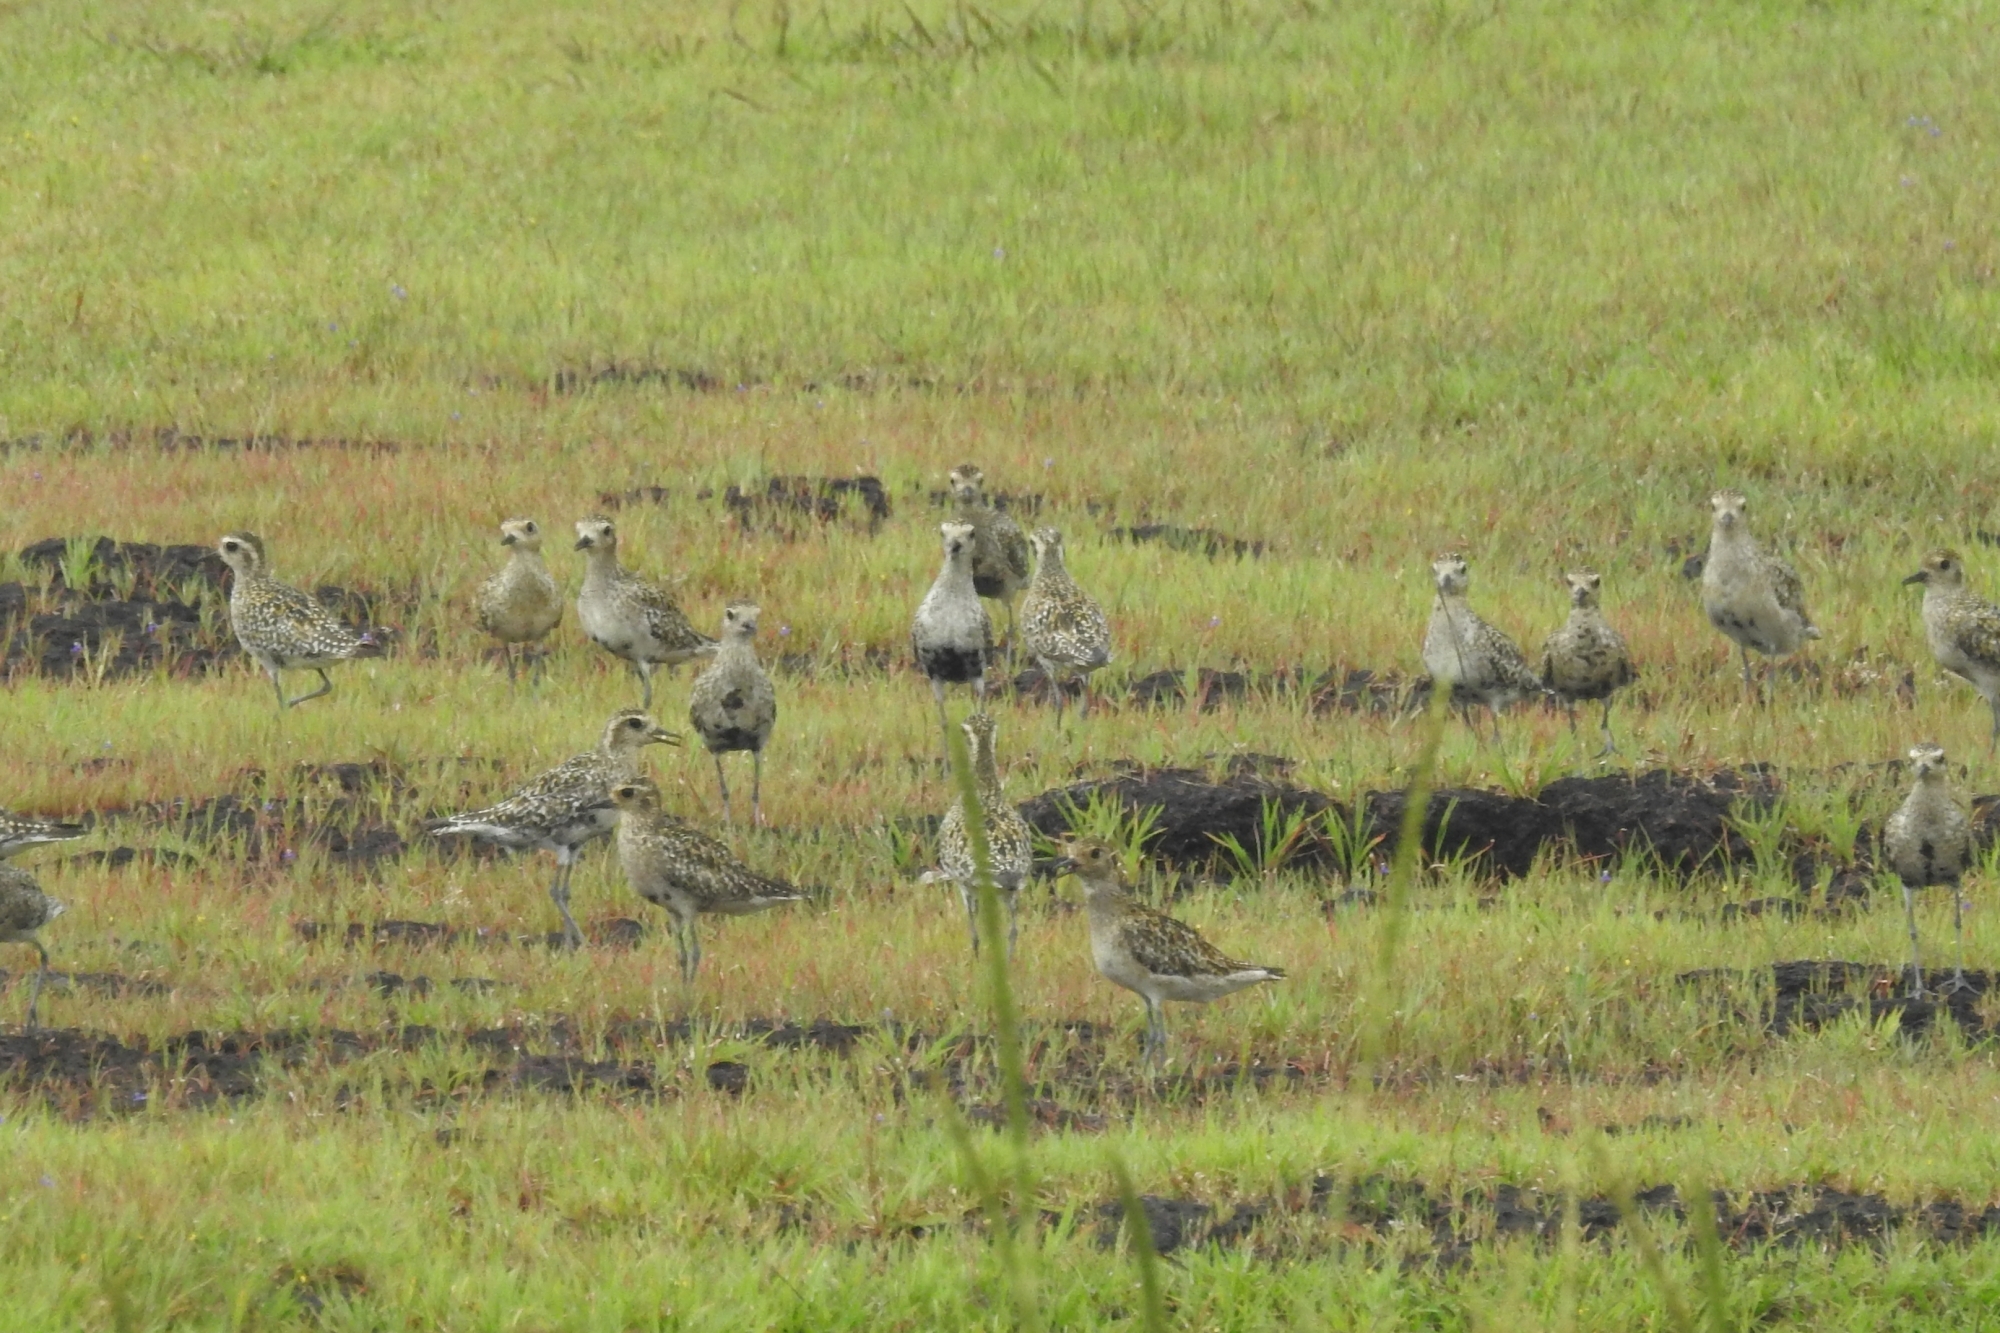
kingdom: Animalia
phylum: Chordata
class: Aves
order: Charadriiformes
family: Charadriidae
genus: Pluvialis
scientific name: Pluvialis fulva
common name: Pacific golden plover
